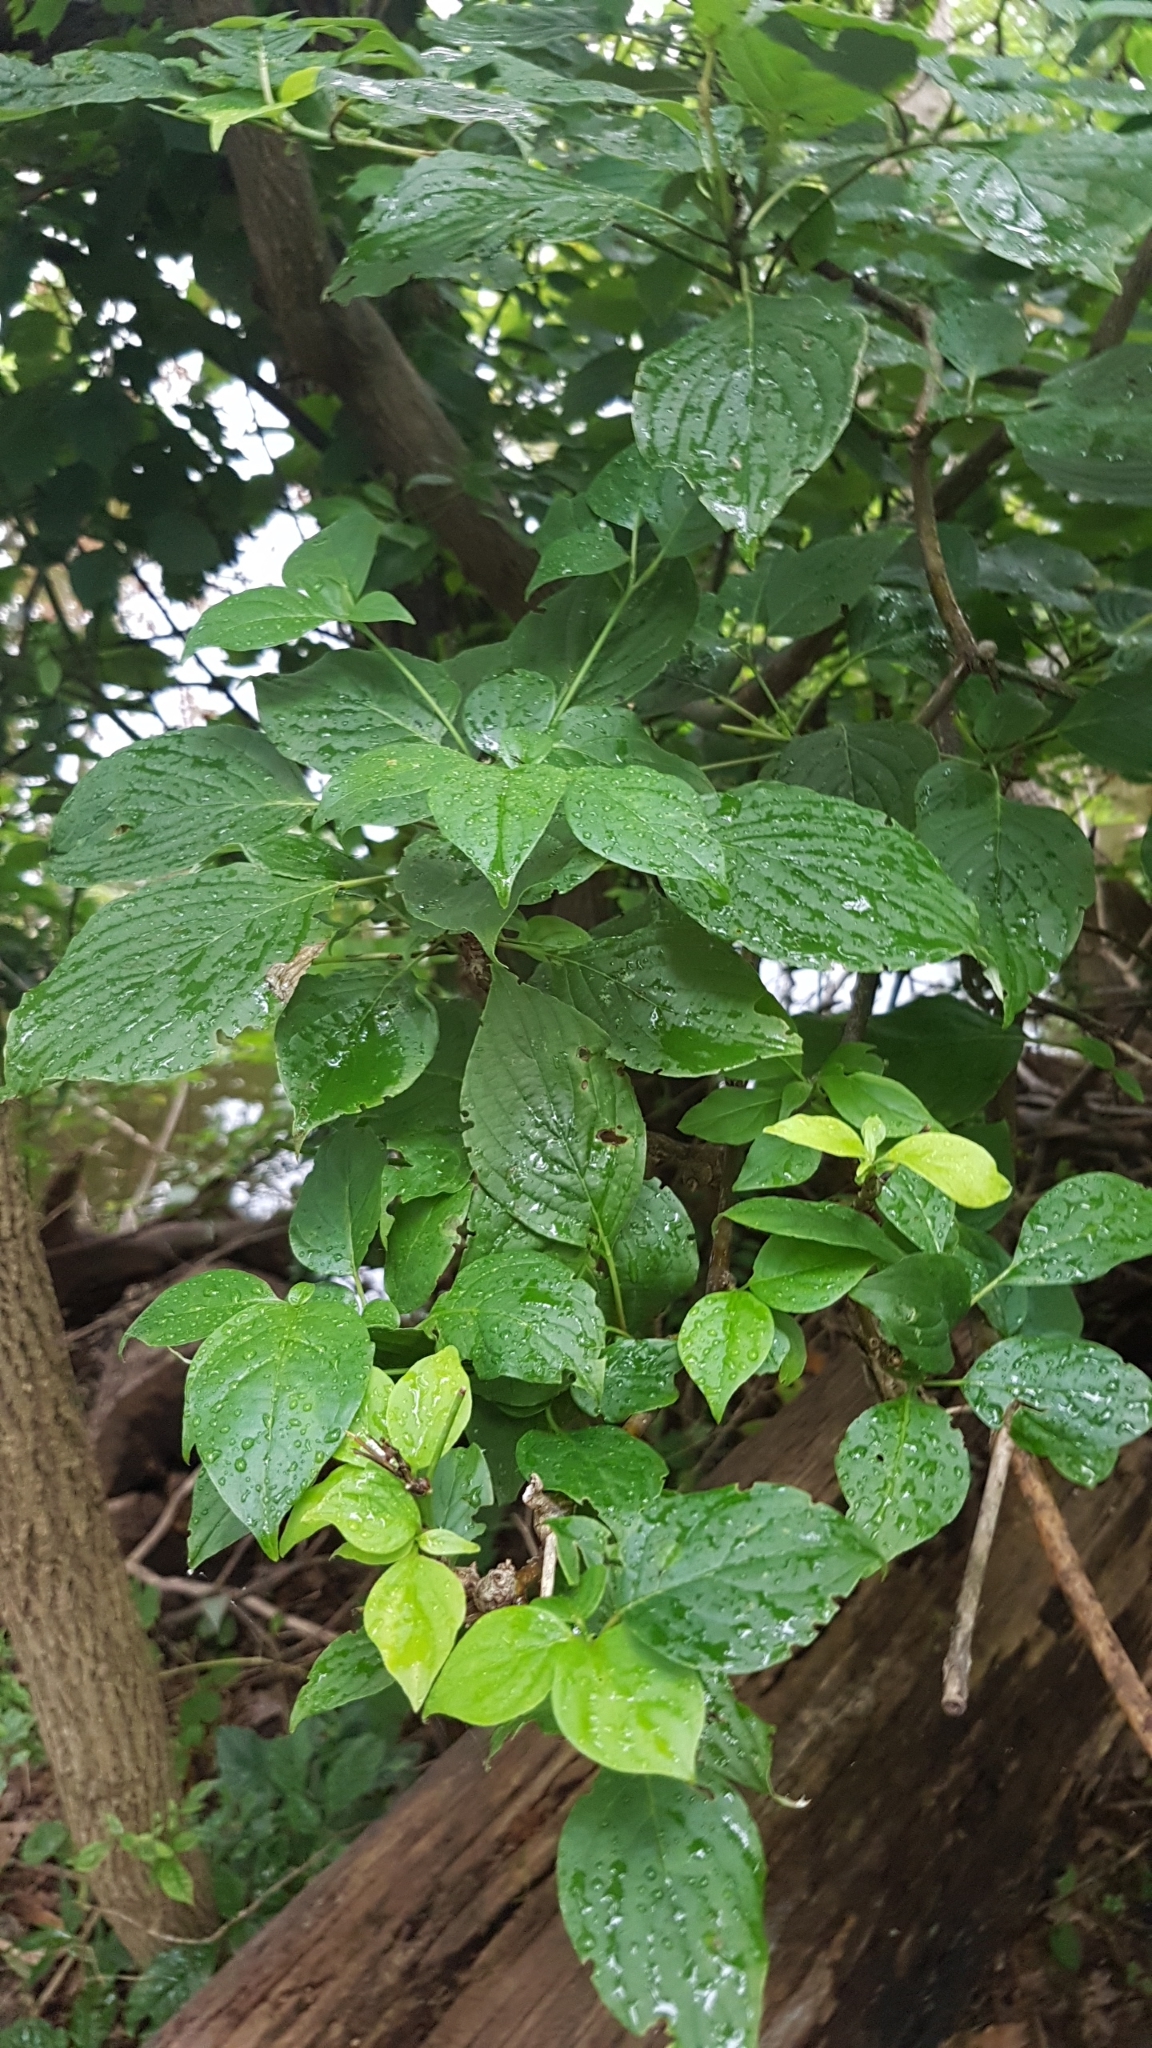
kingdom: Plantae
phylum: Tracheophyta
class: Magnoliopsida
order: Cornales
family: Cornaceae
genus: Cornus
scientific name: Cornus alternifolia
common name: Pagoda dogwood
